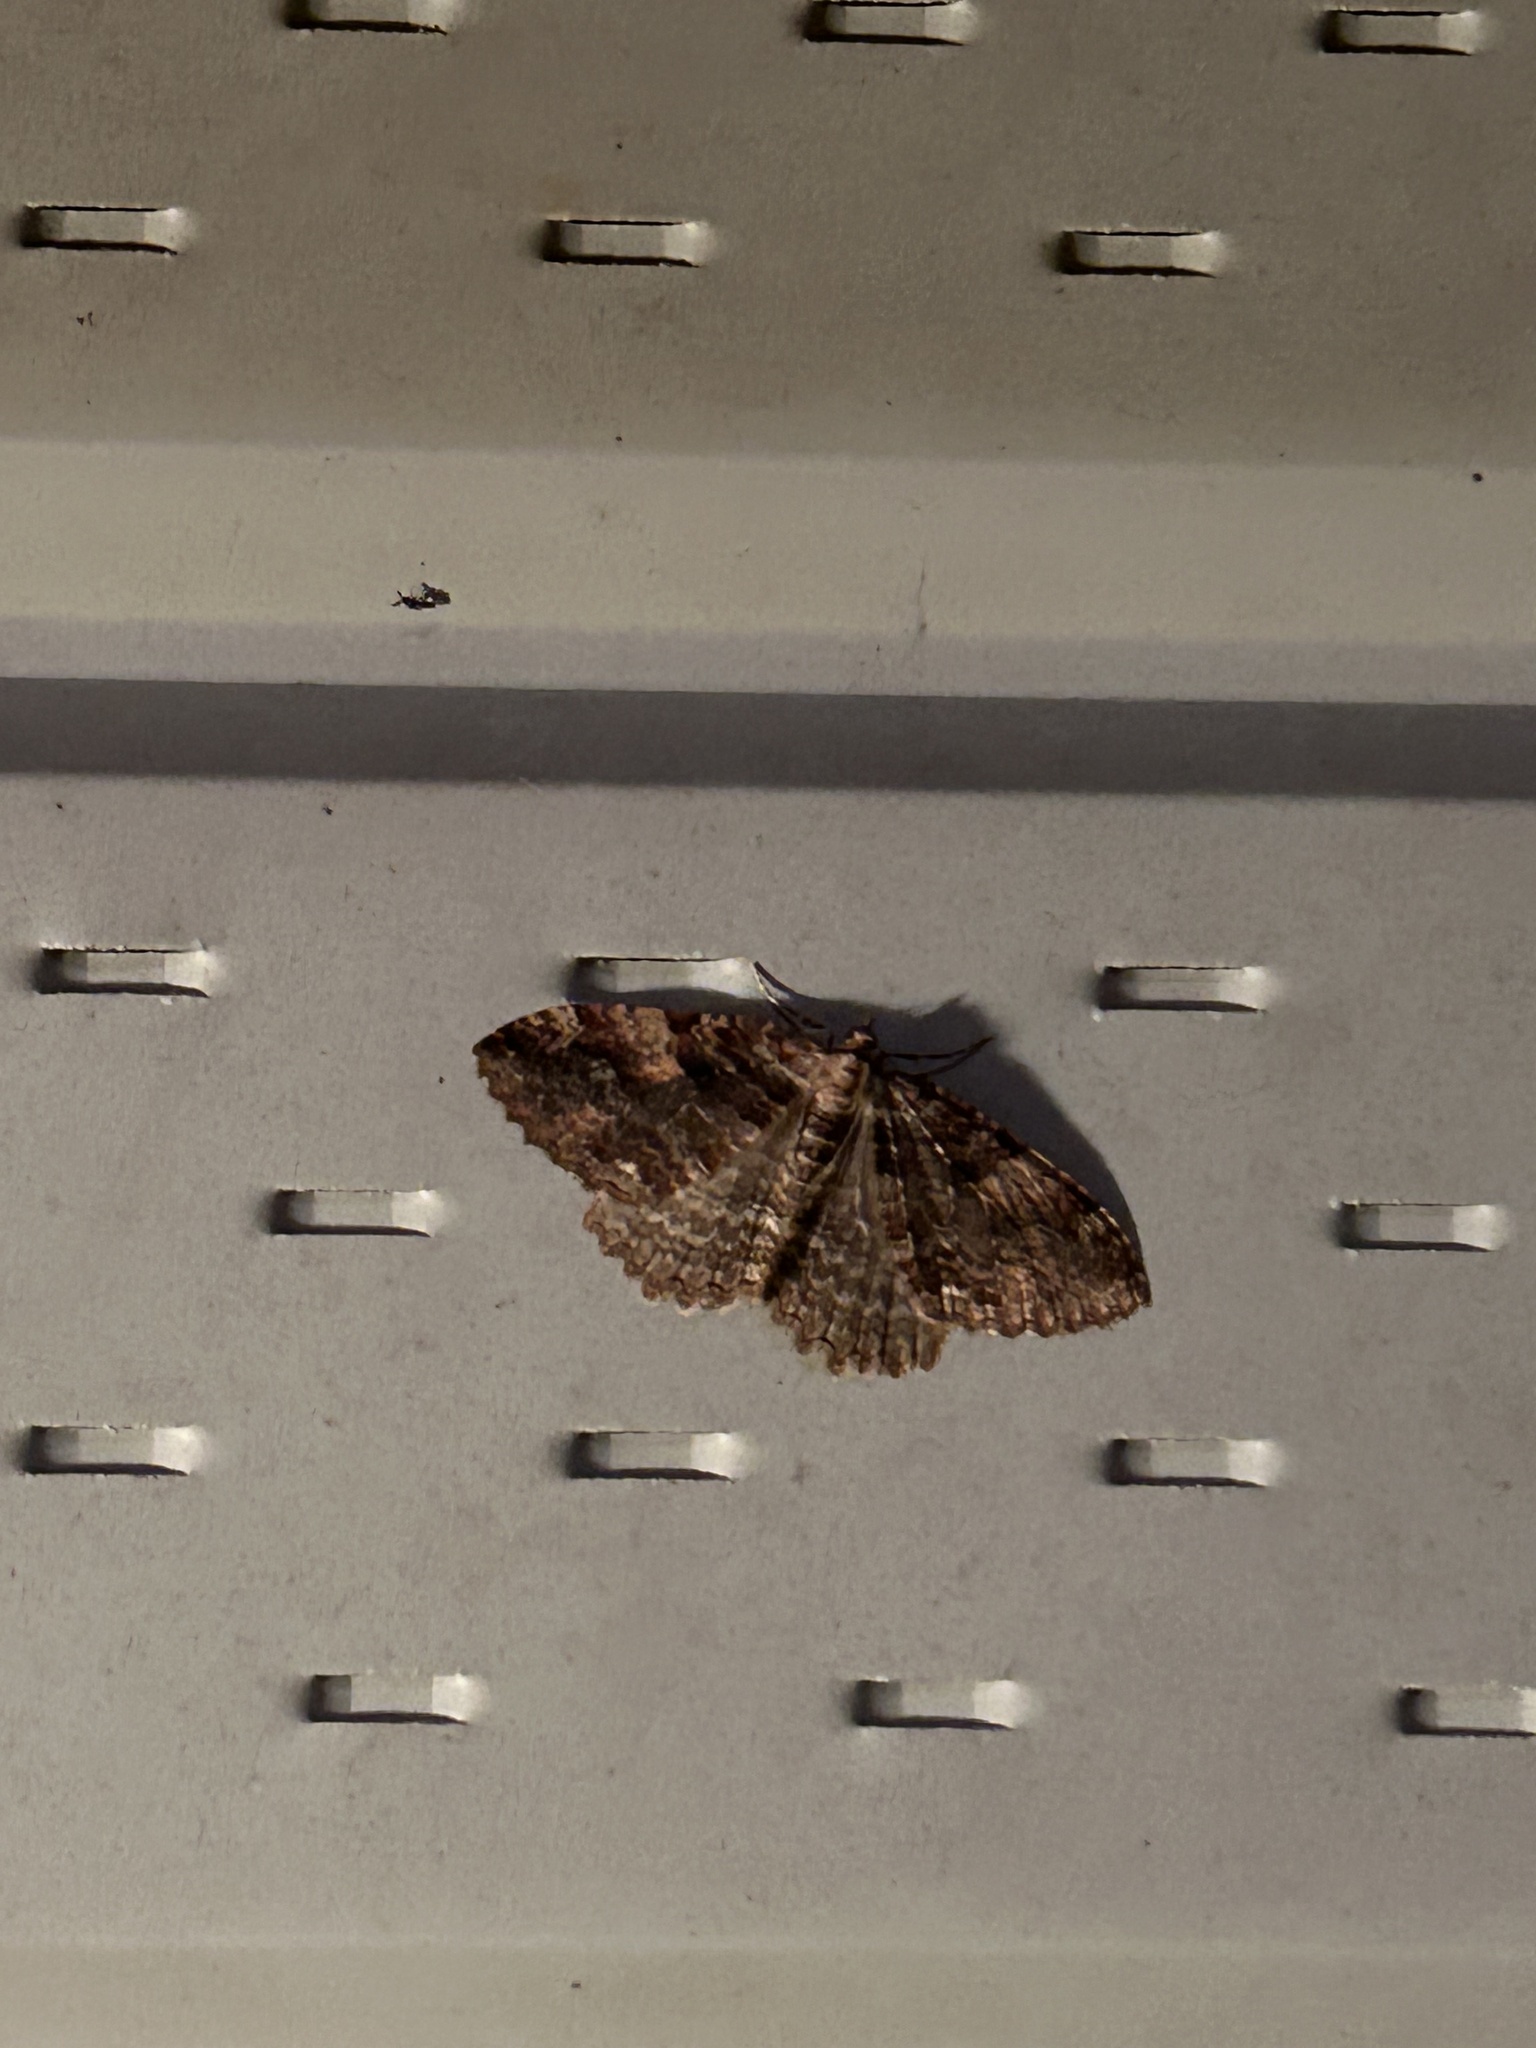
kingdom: Animalia
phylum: Arthropoda
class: Insecta
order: Lepidoptera
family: Geometridae
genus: Triphosa
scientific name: Triphosa haesitata
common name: Tissue moth
